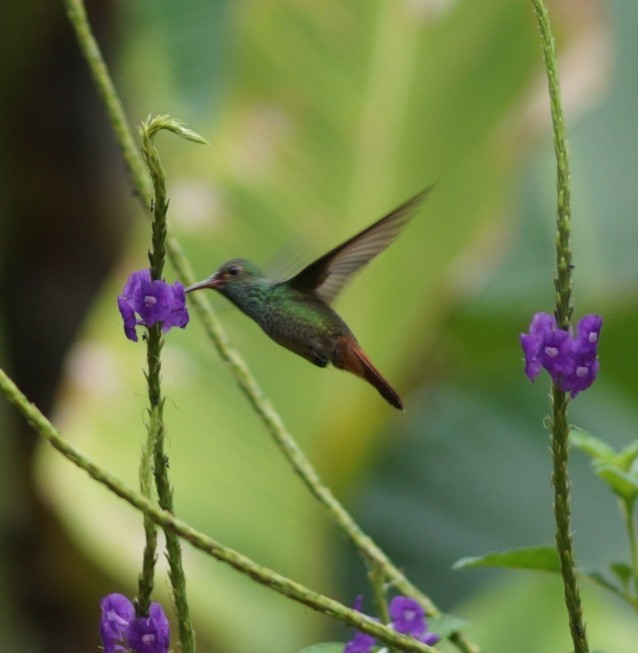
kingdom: Animalia
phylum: Chordata
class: Aves
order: Apodiformes
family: Trochilidae
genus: Amazilia
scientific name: Amazilia tzacatl
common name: Rufous-tailed hummingbird
